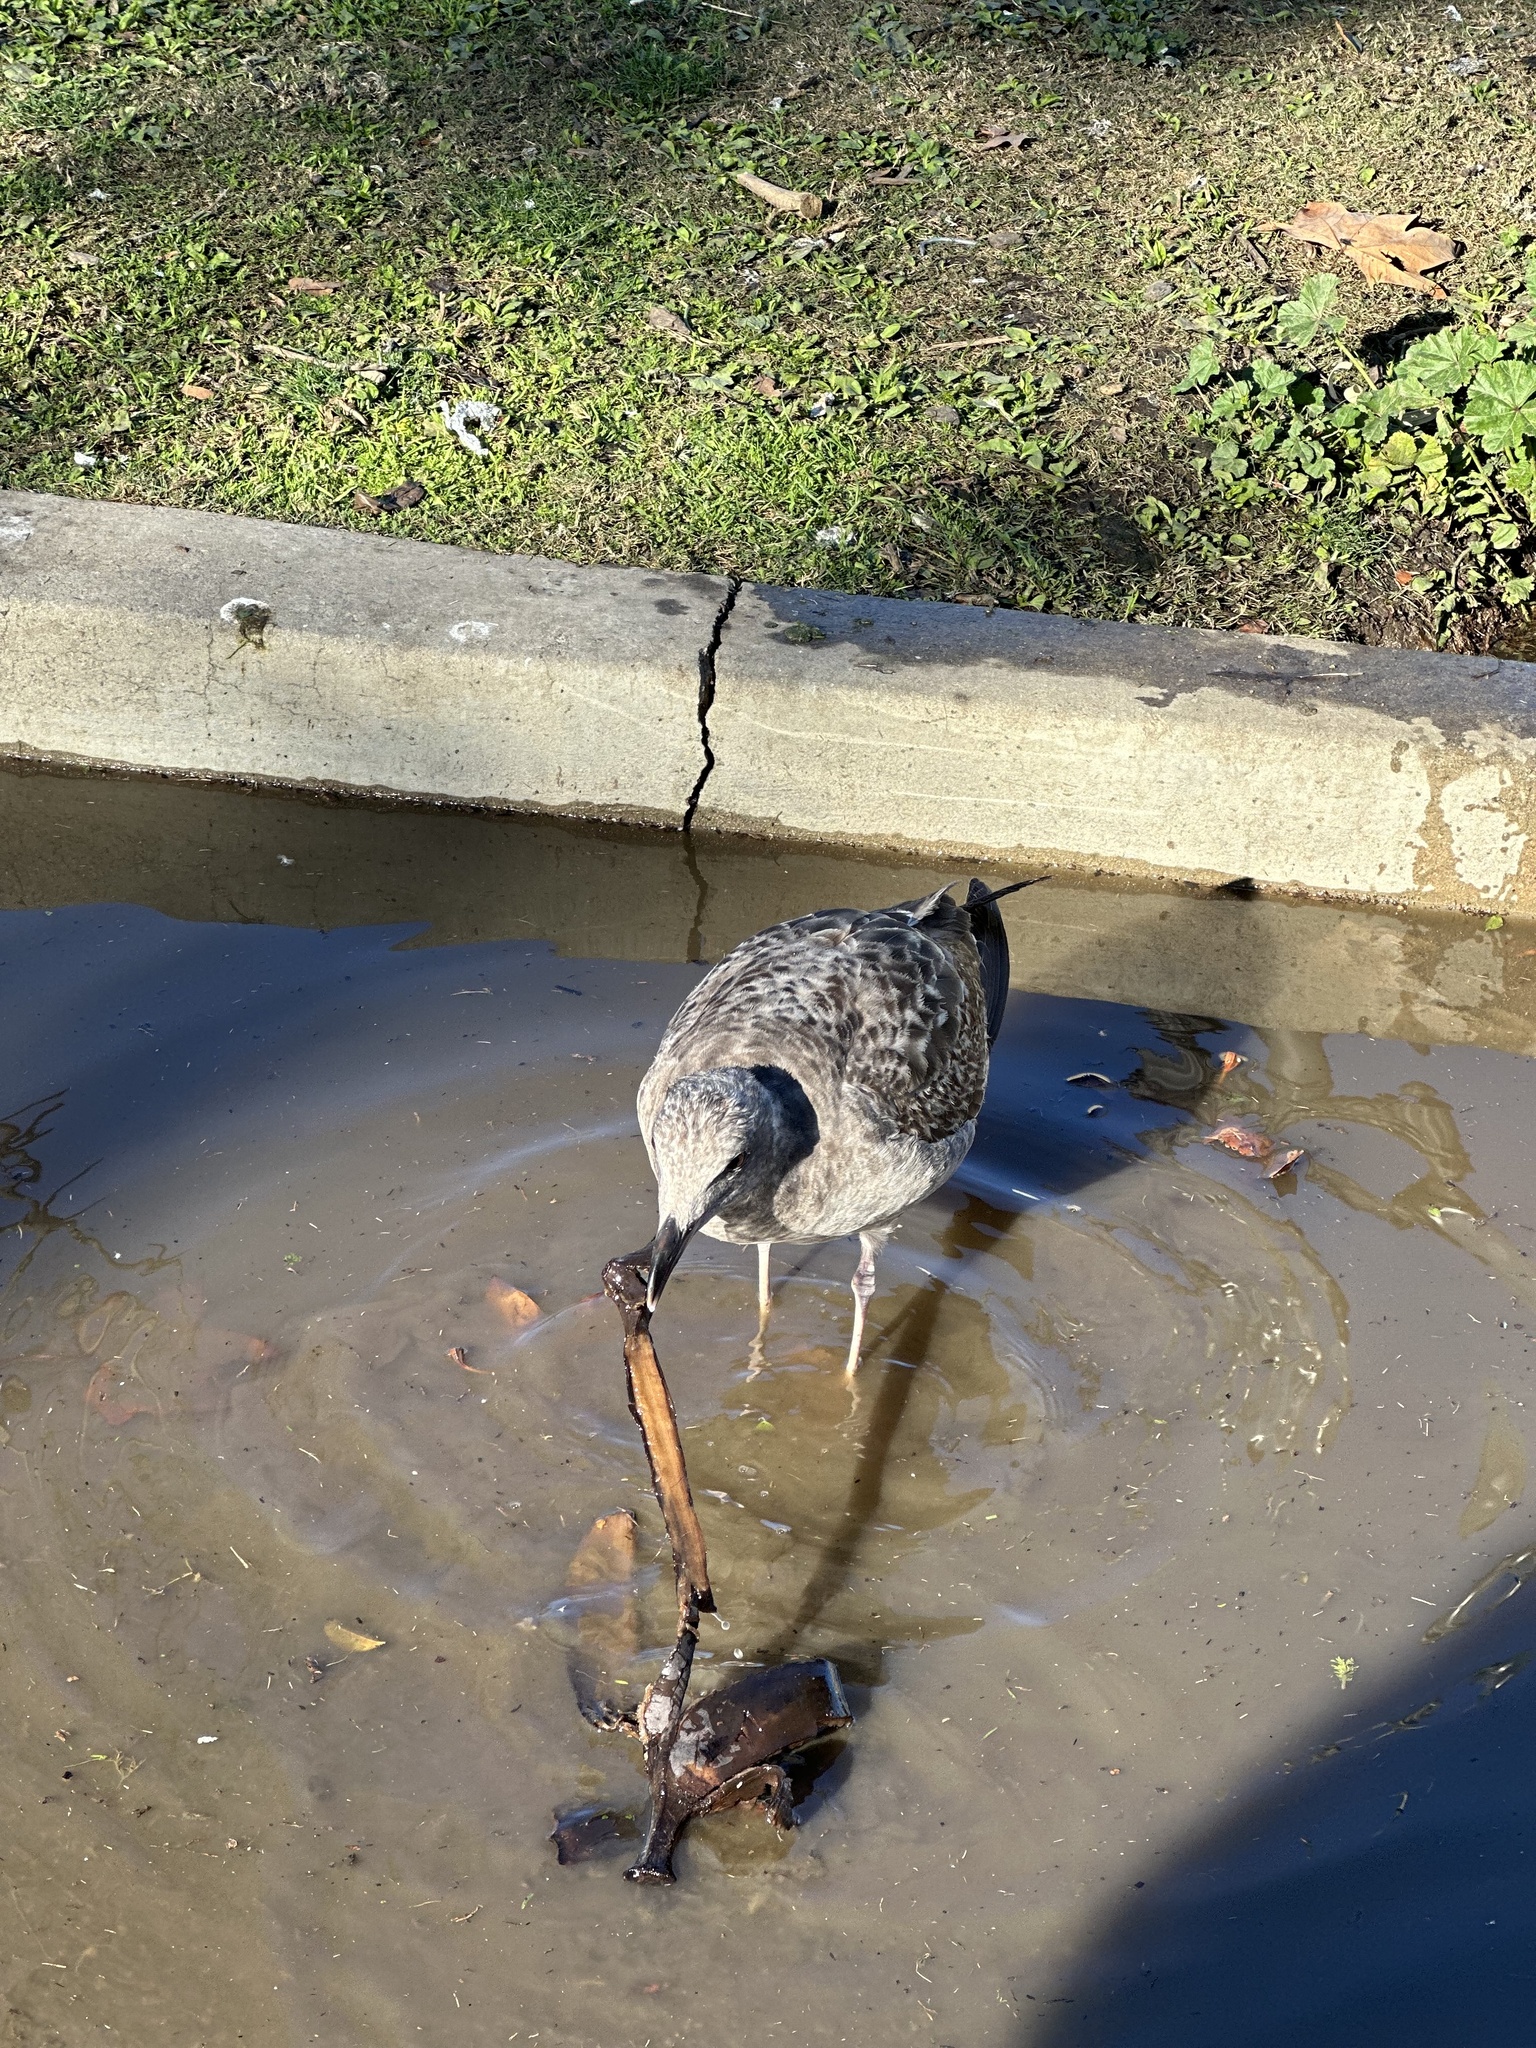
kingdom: Animalia
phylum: Chordata
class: Aves
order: Charadriiformes
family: Laridae
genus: Larus
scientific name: Larus occidentalis
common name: Western gull
